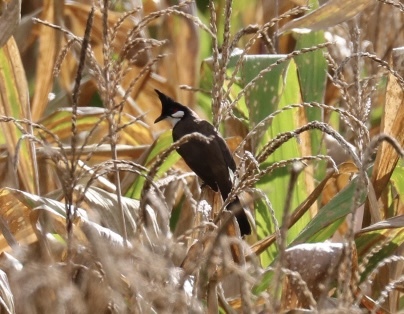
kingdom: Animalia
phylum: Chordata
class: Aves
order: Passeriformes
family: Pycnonotidae
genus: Pycnonotus
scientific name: Pycnonotus jocosus
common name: Red-whiskered bulbul
